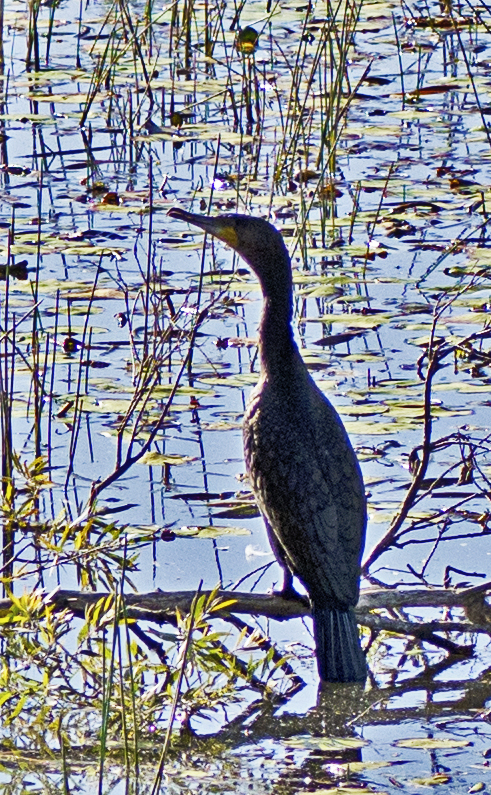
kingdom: Animalia
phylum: Chordata
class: Aves
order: Suliformes
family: Phalacrocoracidae
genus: Phalacrocorax
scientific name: Phalacrocorax carbo
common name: Great cormorant
